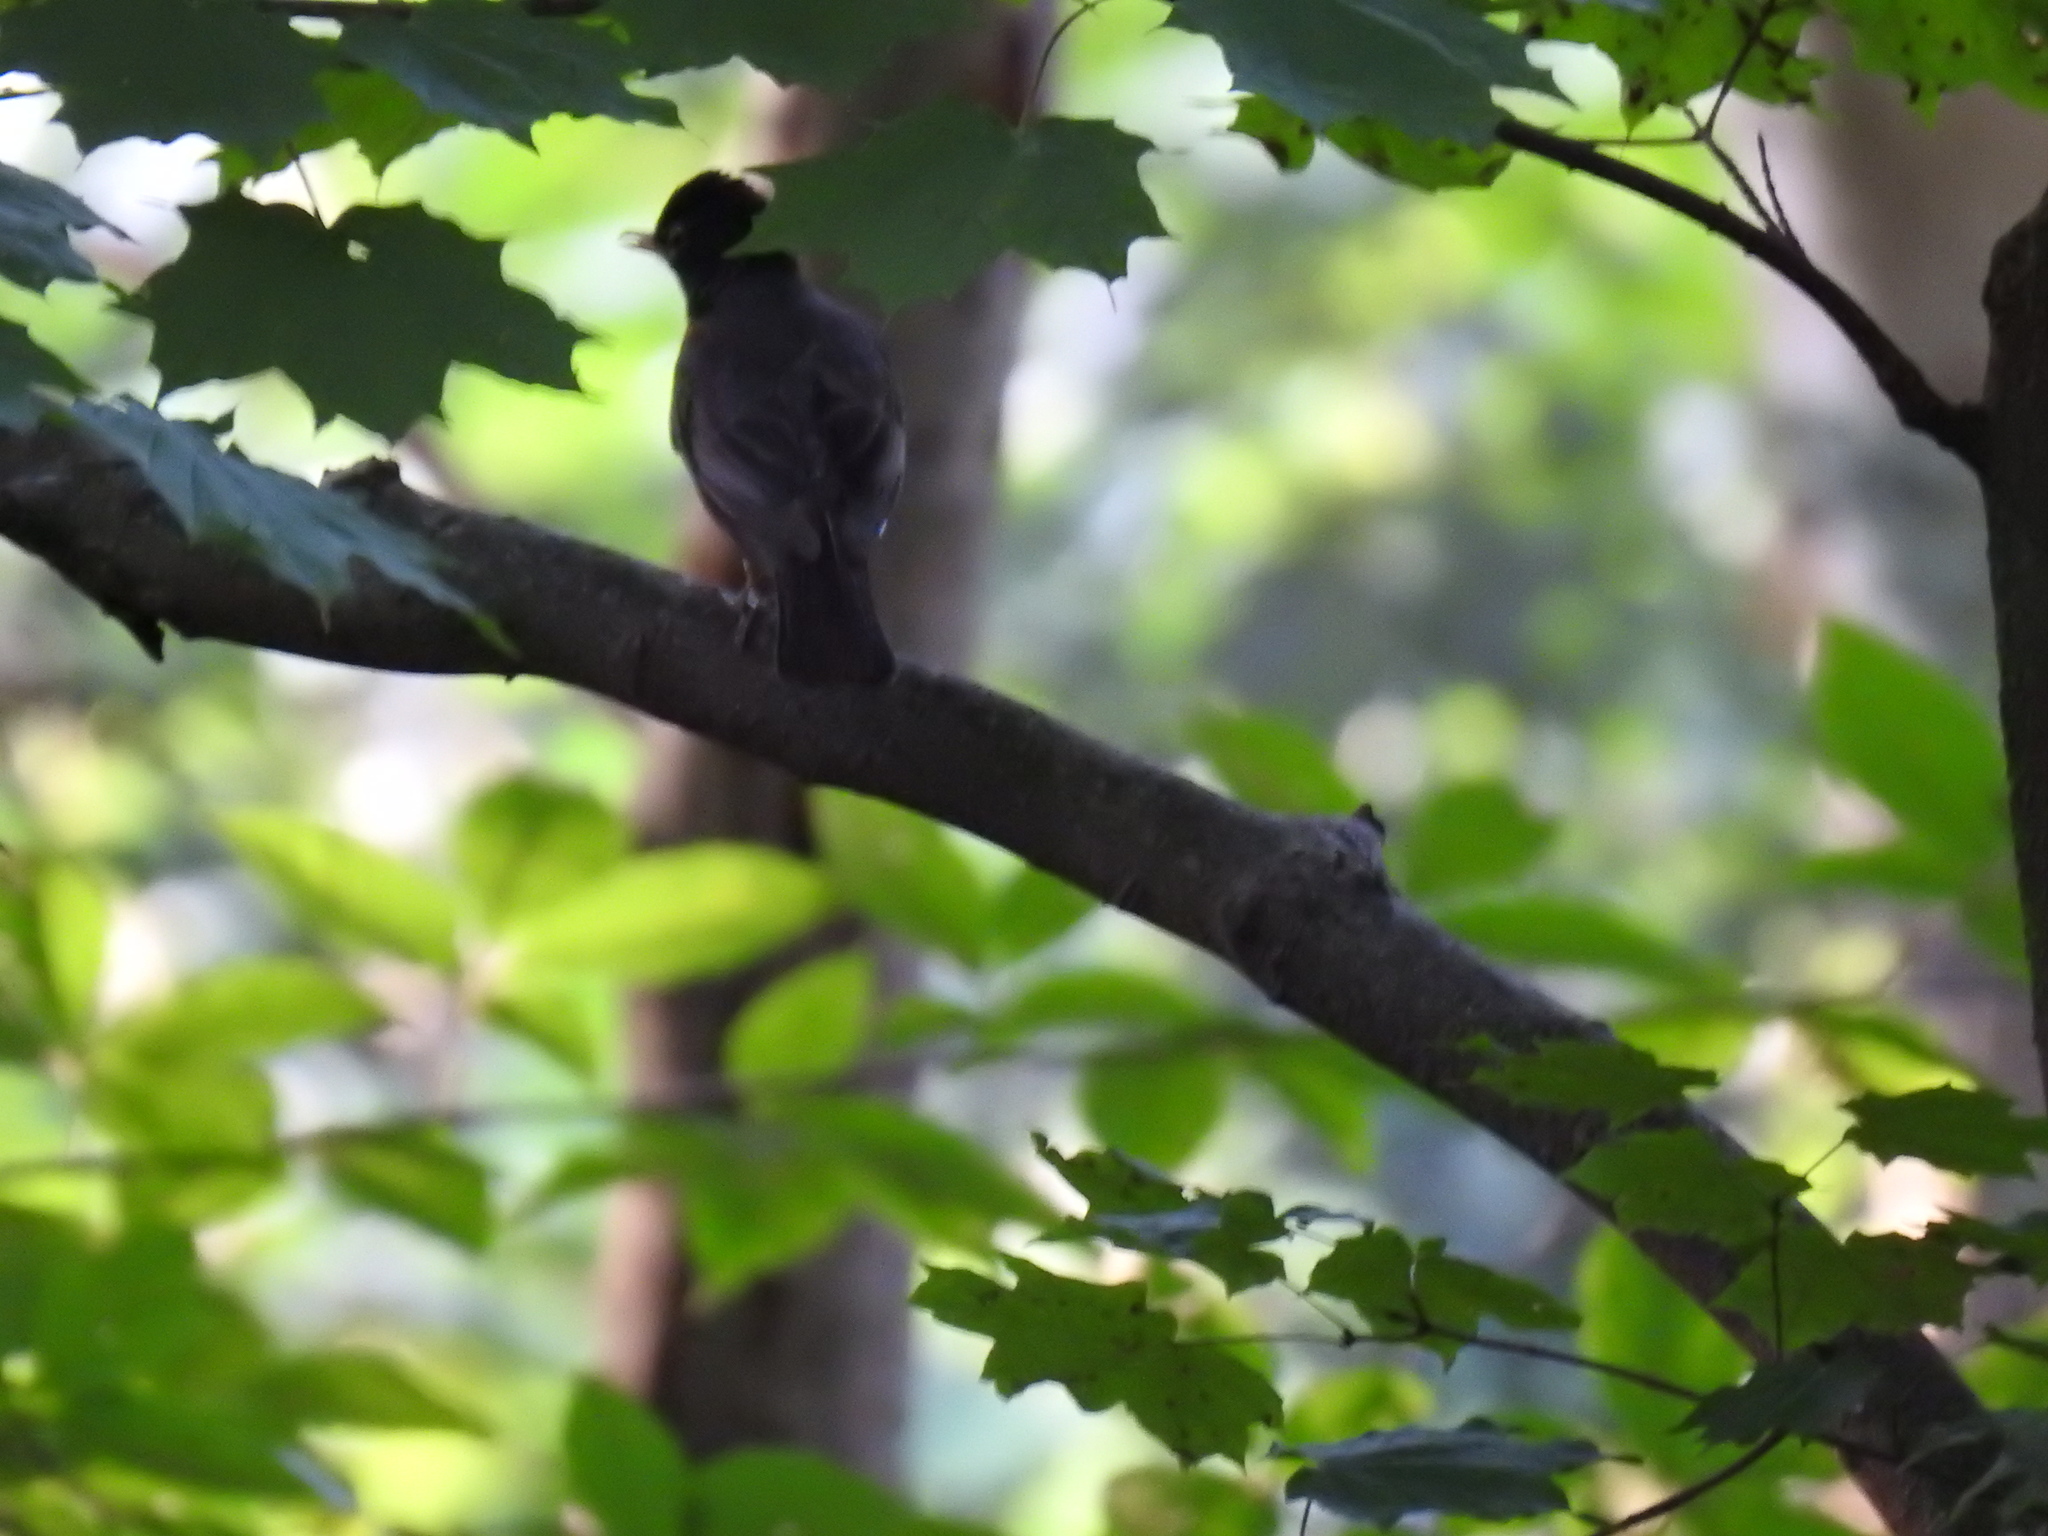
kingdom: Animalia
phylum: Chordata
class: Aves
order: Passeriformes
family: Turdidae
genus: Turdus
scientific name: Turdus migratorius
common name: American robin
